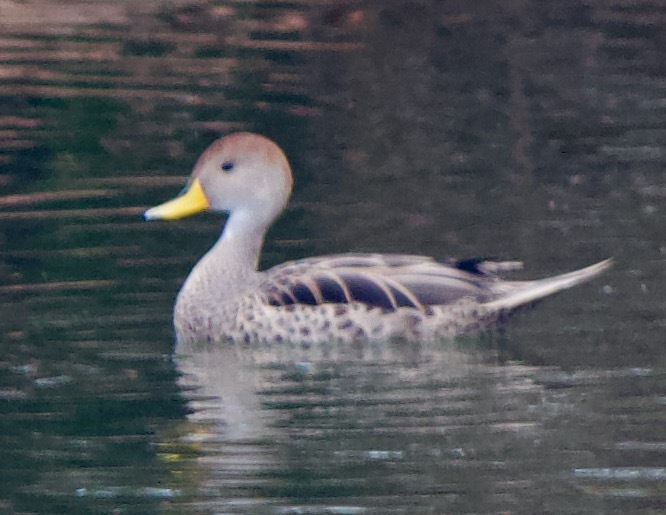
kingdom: Animalia
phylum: Chordata
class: Aves
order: Anseriformes
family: Anatidae
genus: Anas
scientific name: Anas georgica
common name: Yellow-billed pintail
